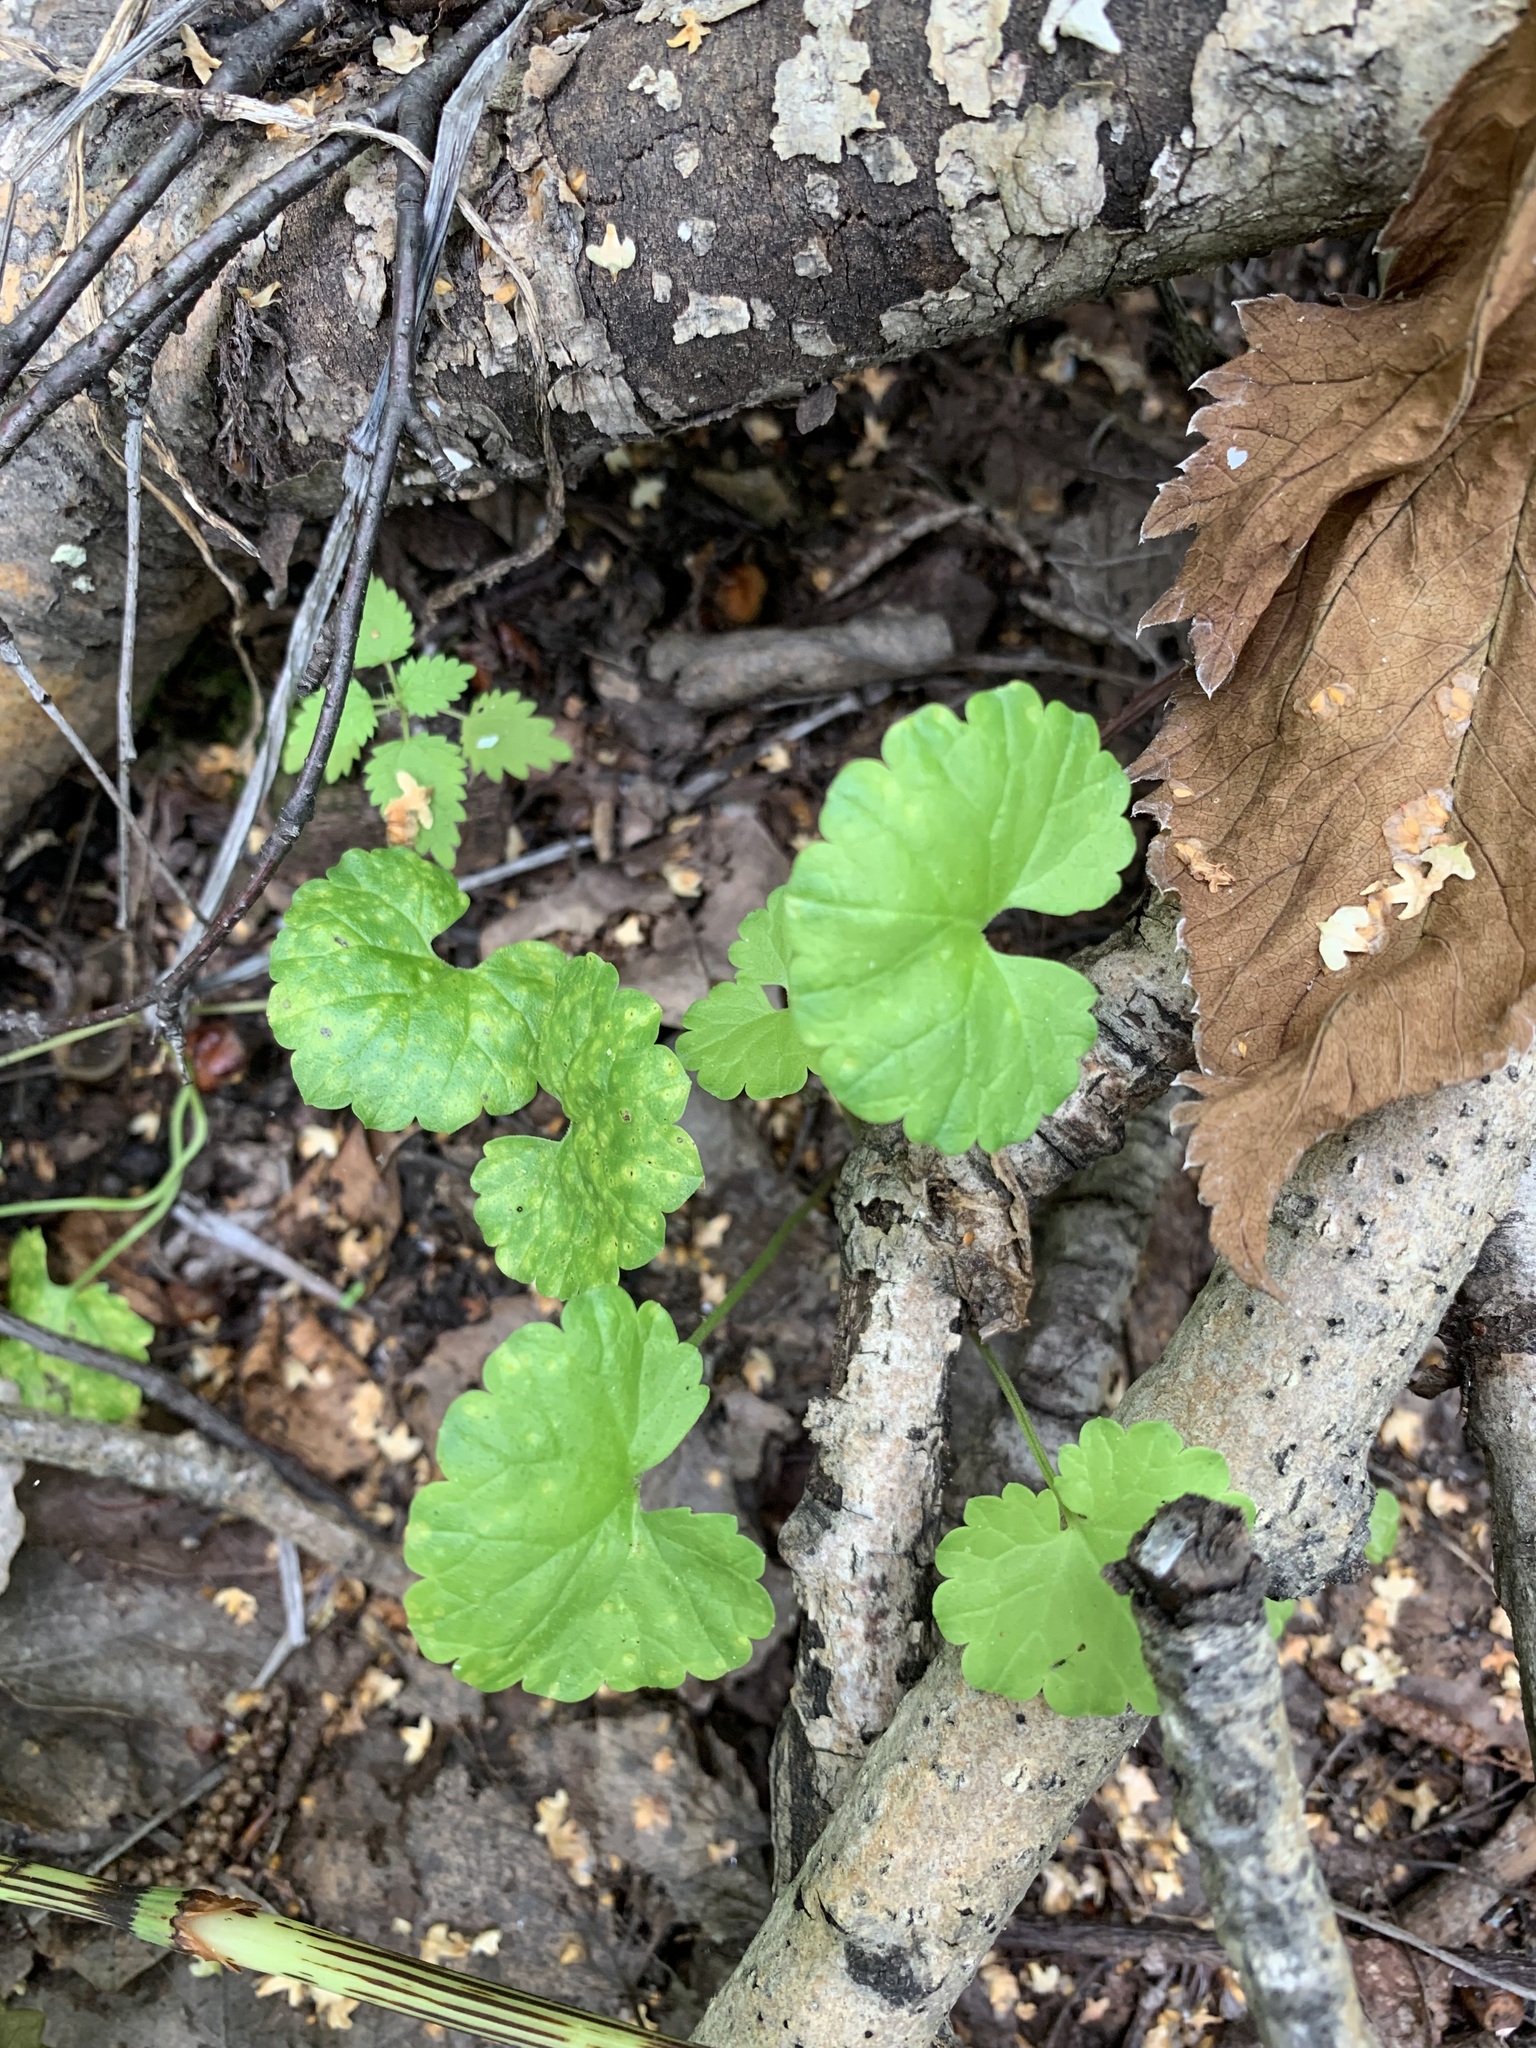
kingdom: Plantae
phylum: Tracheophyta
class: Magnoliopsida
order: Lamiales
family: Lamiaceae
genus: Glechoma
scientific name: Glechoma hederacea
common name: Ground ivy
